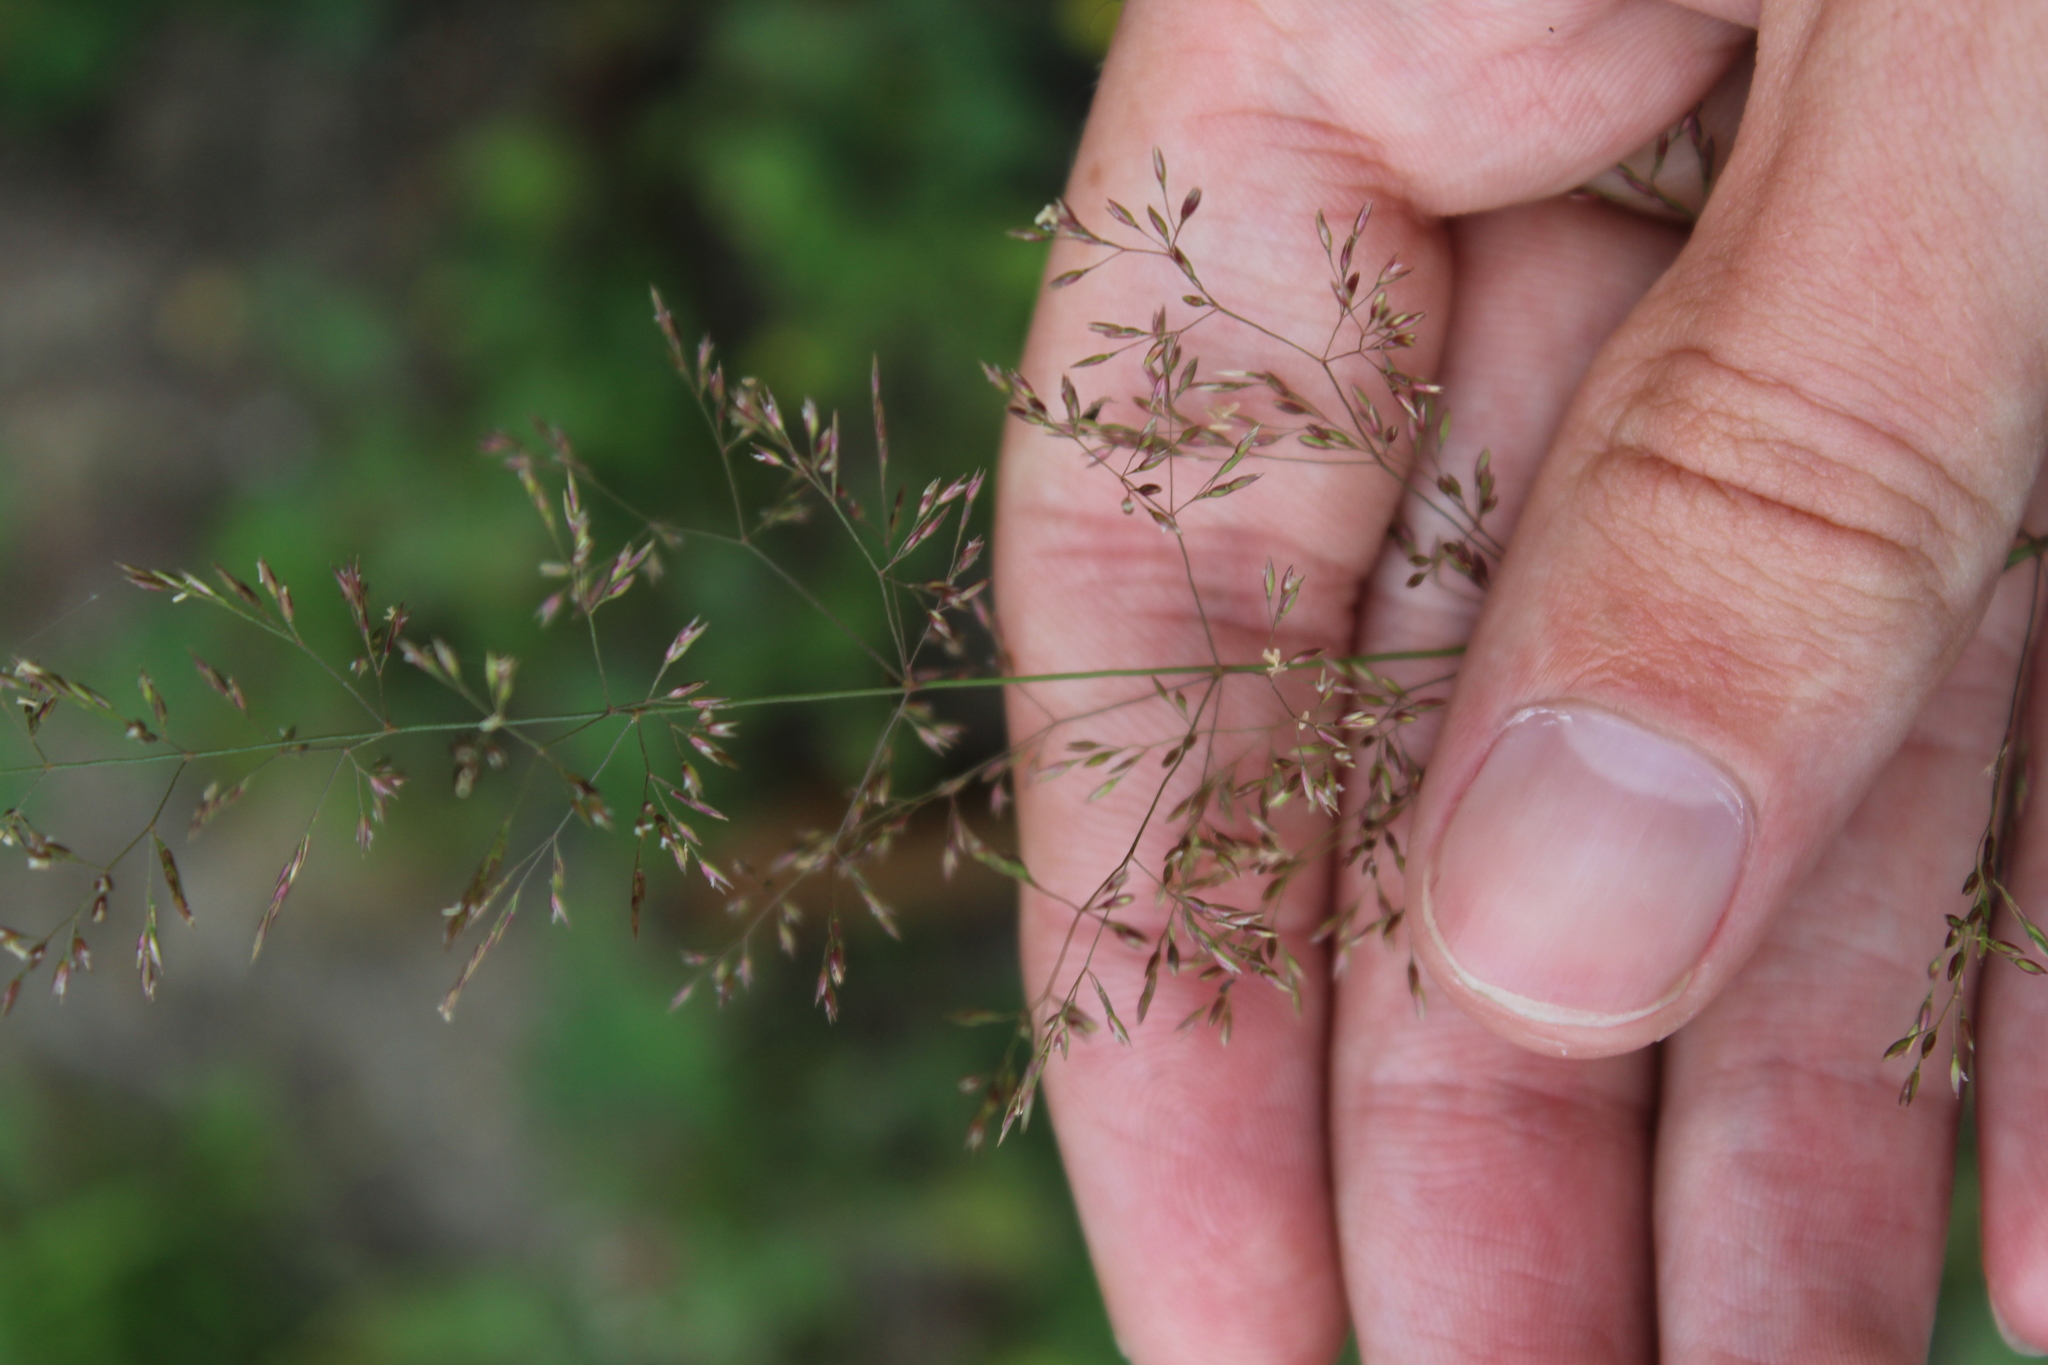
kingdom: Plantae
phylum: Tracheophyta
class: Liliopsida
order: Poales
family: Poaceae
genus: Agrostis
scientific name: Agrostis gigantea
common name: Black bent
